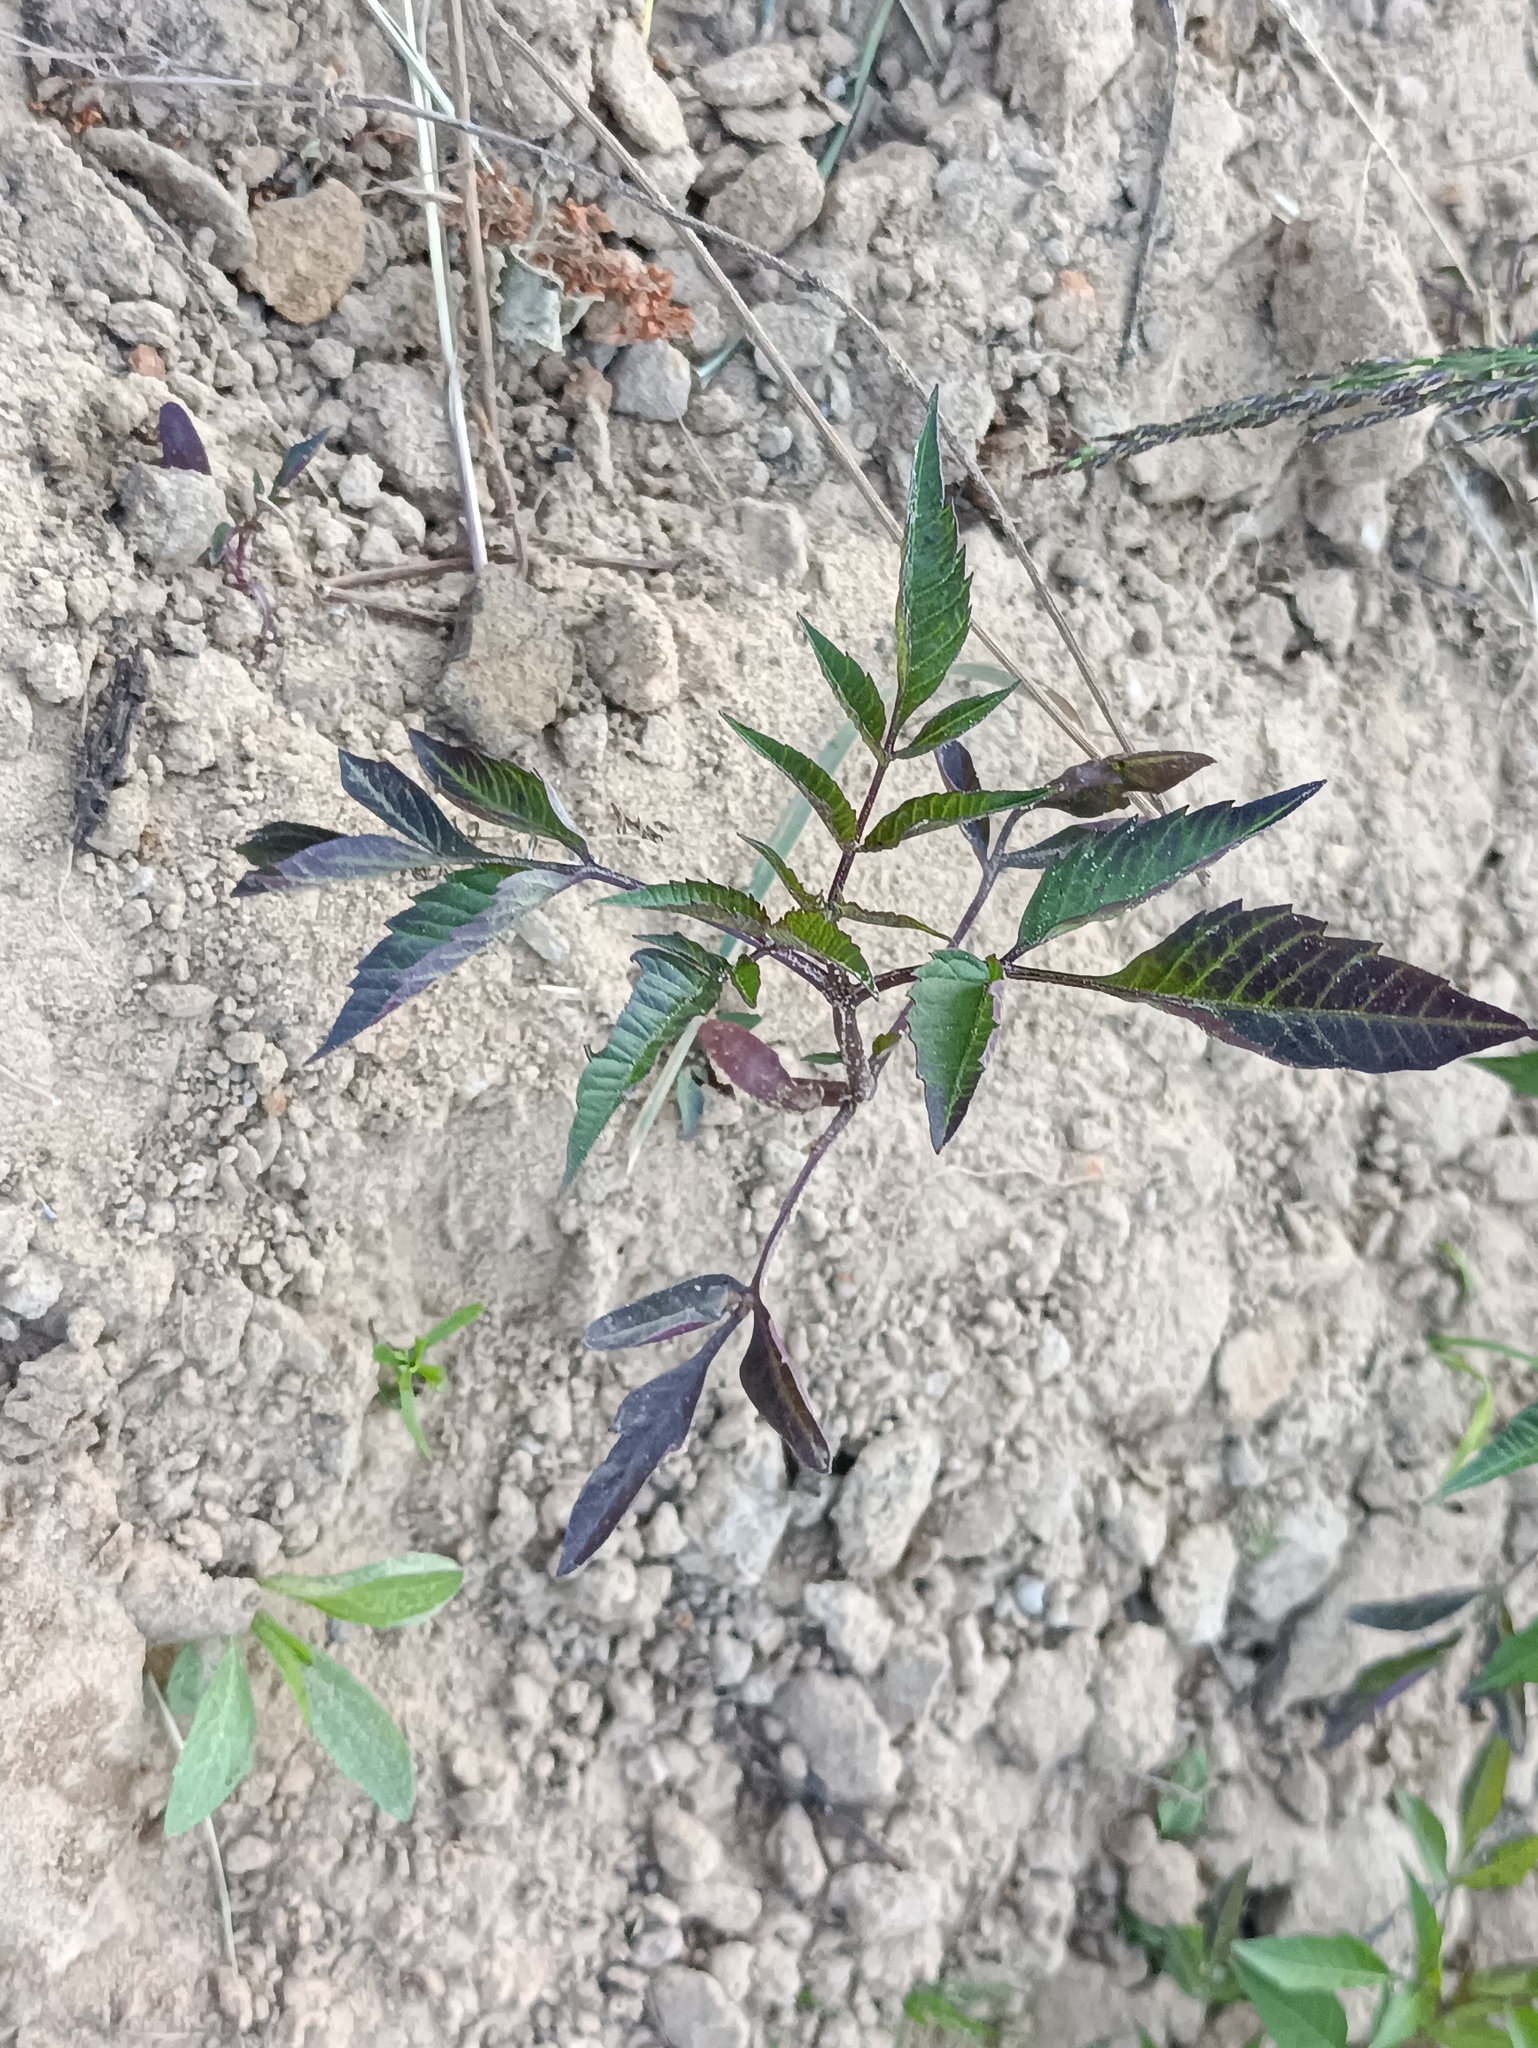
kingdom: Plantae
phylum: Tracheophyta
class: Magnoliopsida
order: Asterales
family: Asteraceae
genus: Bidens
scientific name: Bidens frondosa
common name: Beggarticks
